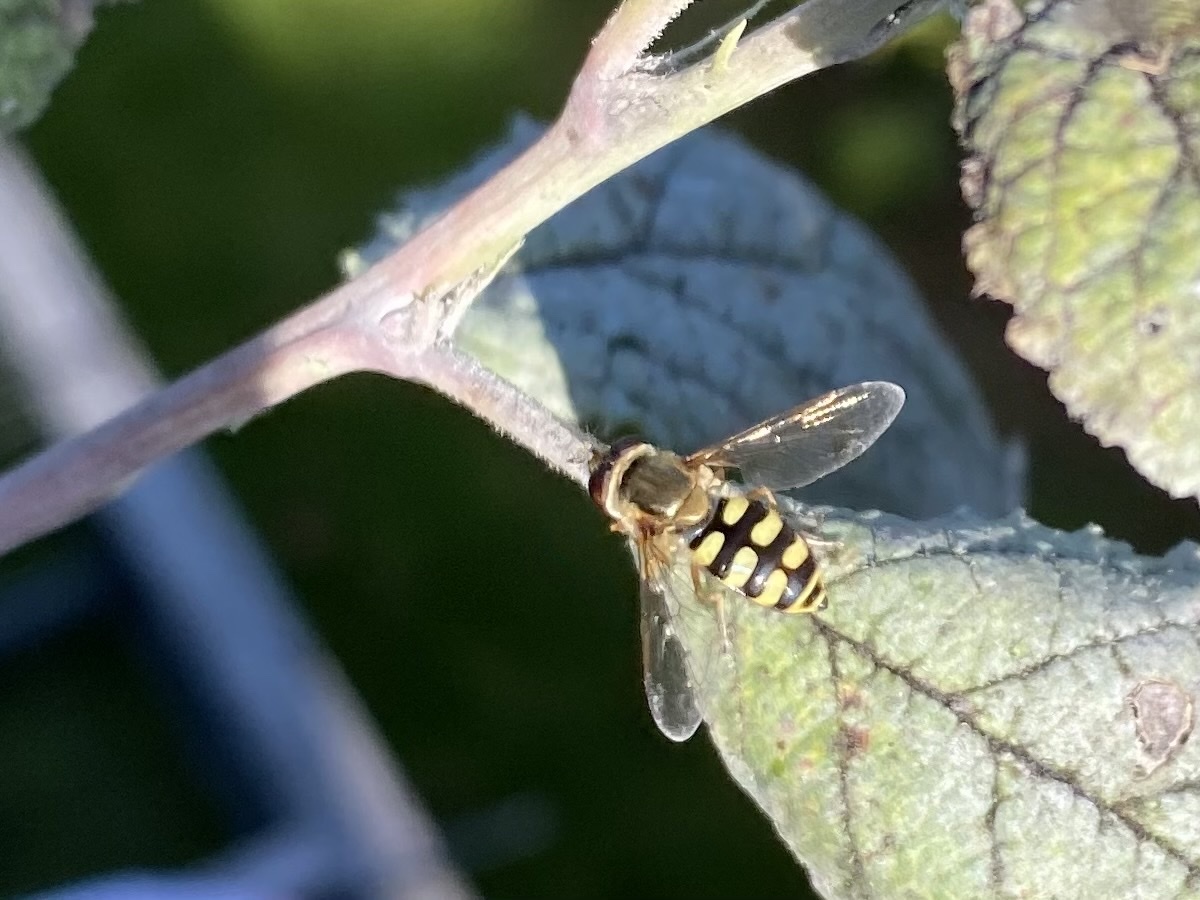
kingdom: Animalia
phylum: Arthropoda
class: Insecta
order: Diptera
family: Syrphidae
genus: Eupeodes
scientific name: Eupeodes corollae
